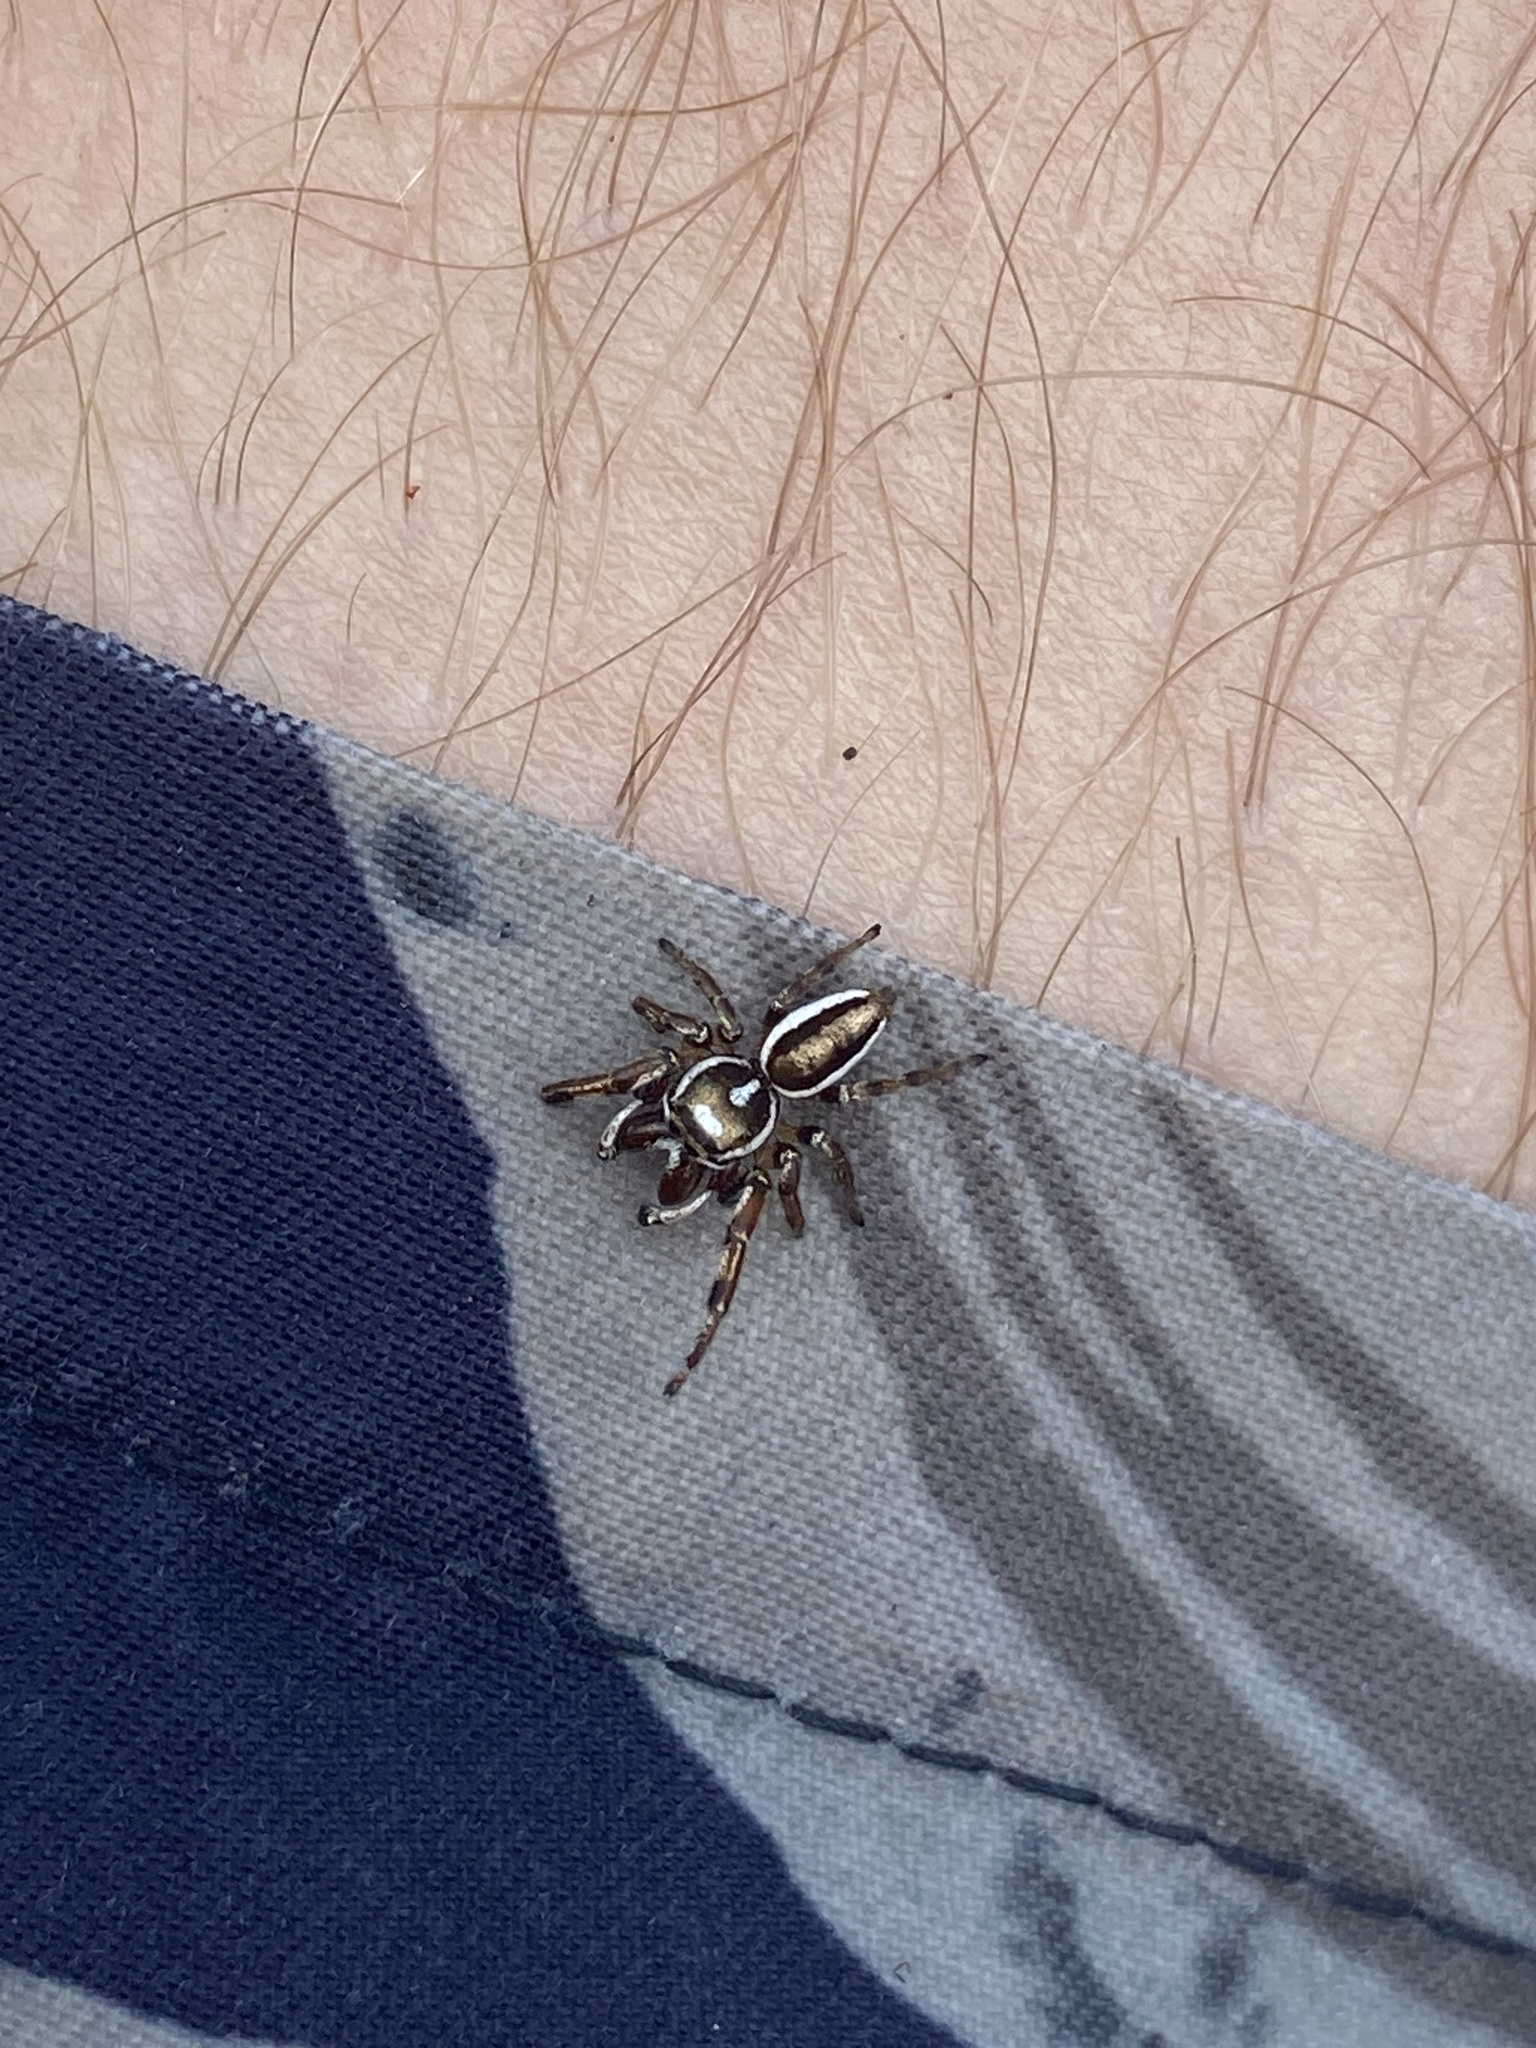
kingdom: Animalia
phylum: Arthropoda
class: Arachnida
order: Araneae
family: Salticidae
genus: Eris
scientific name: Eris flava
